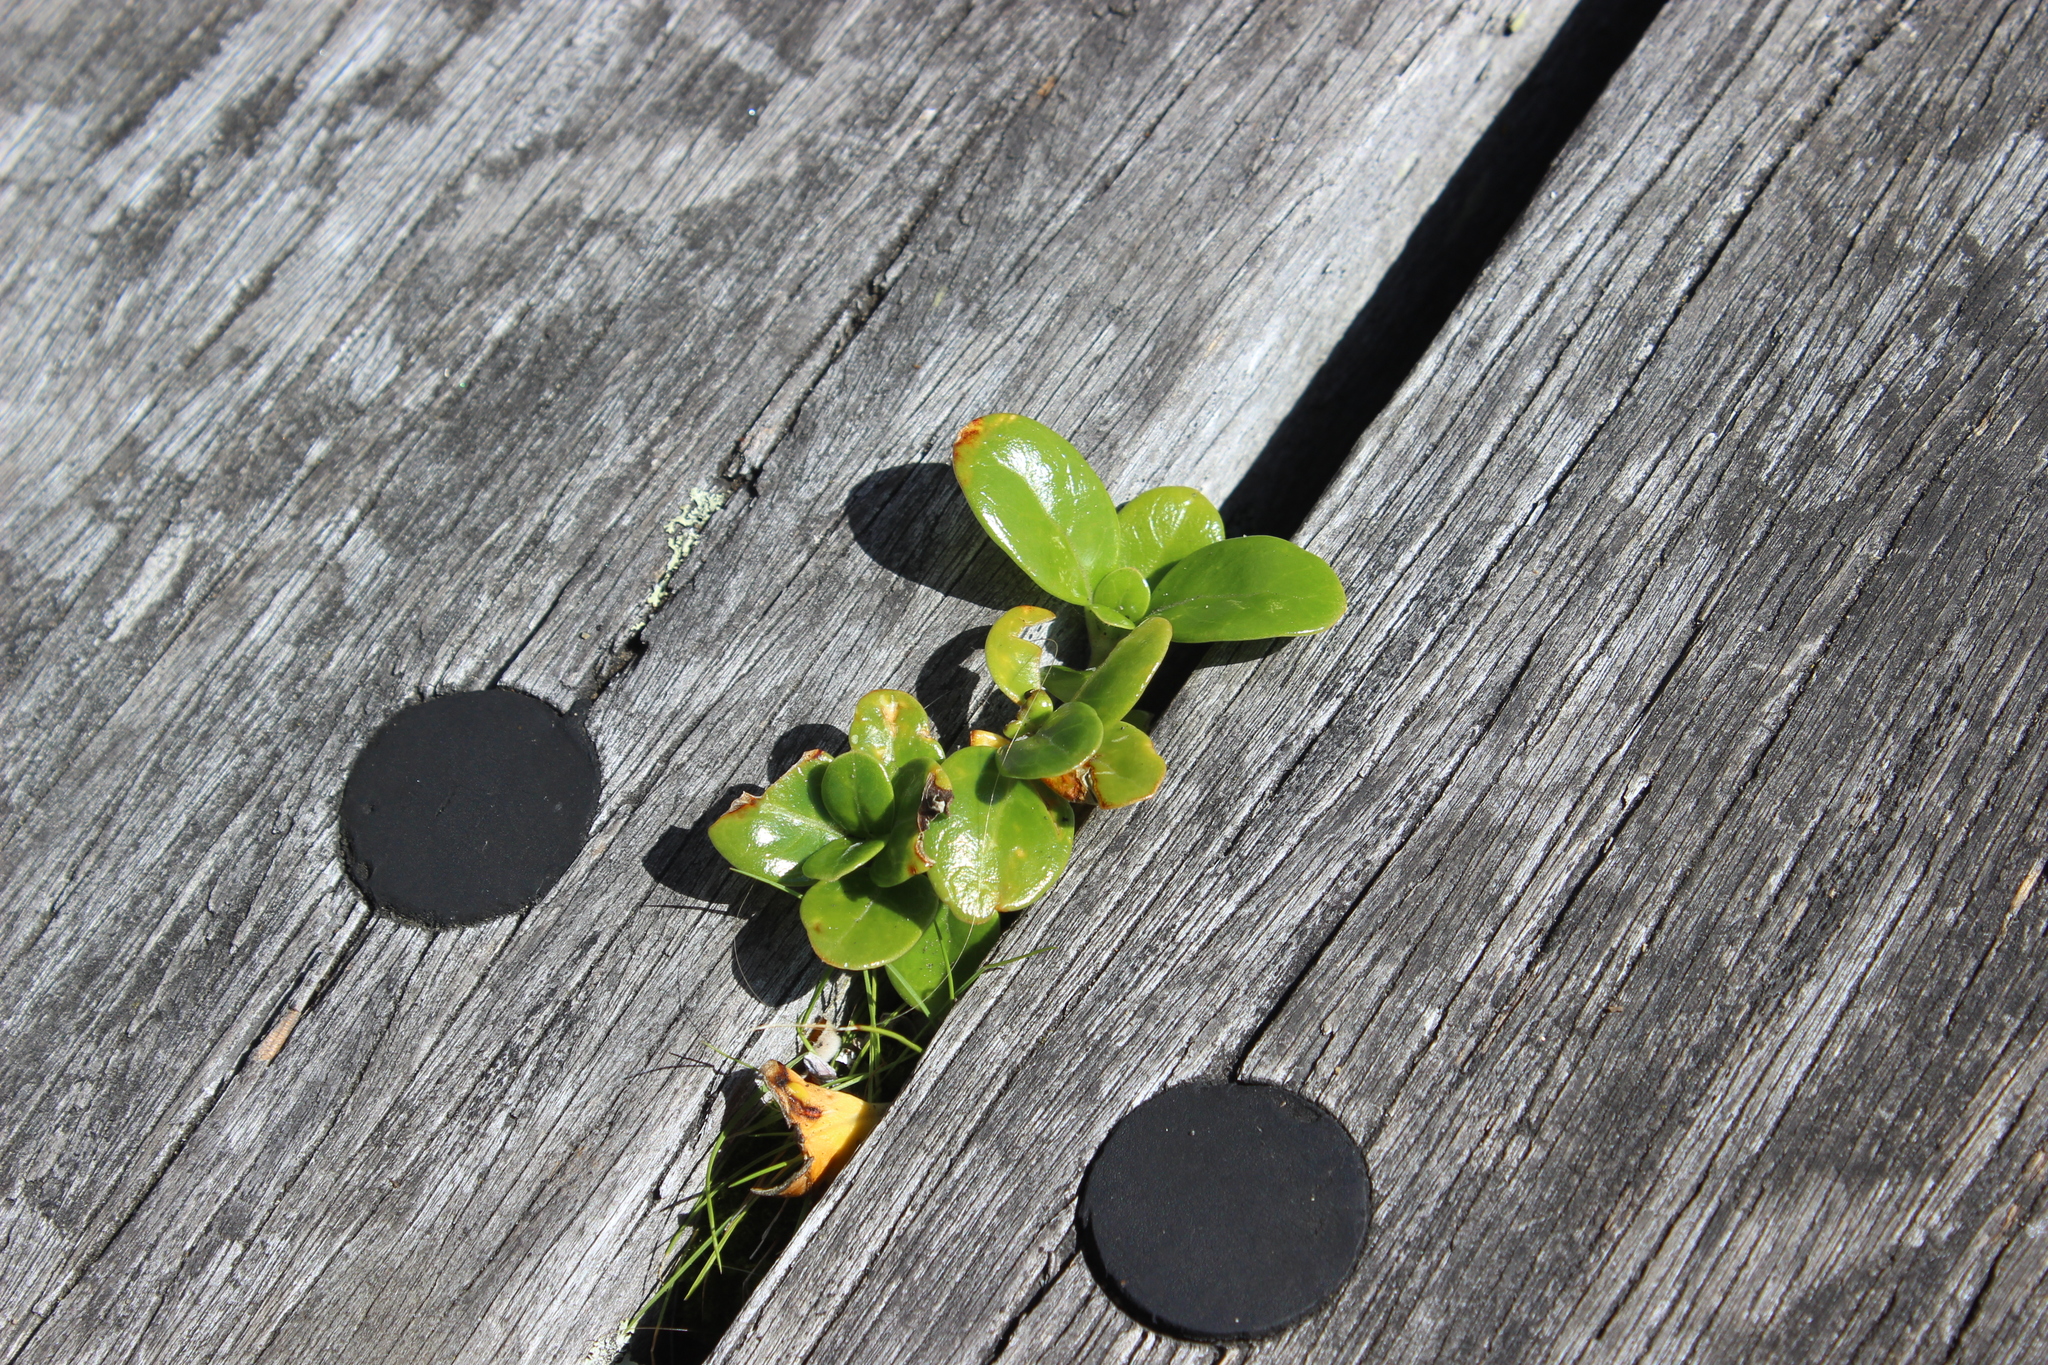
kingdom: Plantae
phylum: Tracheophyta
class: Magnoliopsida
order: Gentianales
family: Rubiaceae
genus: Coprosma
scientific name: Coprosma repens
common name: Tree bedstraw
